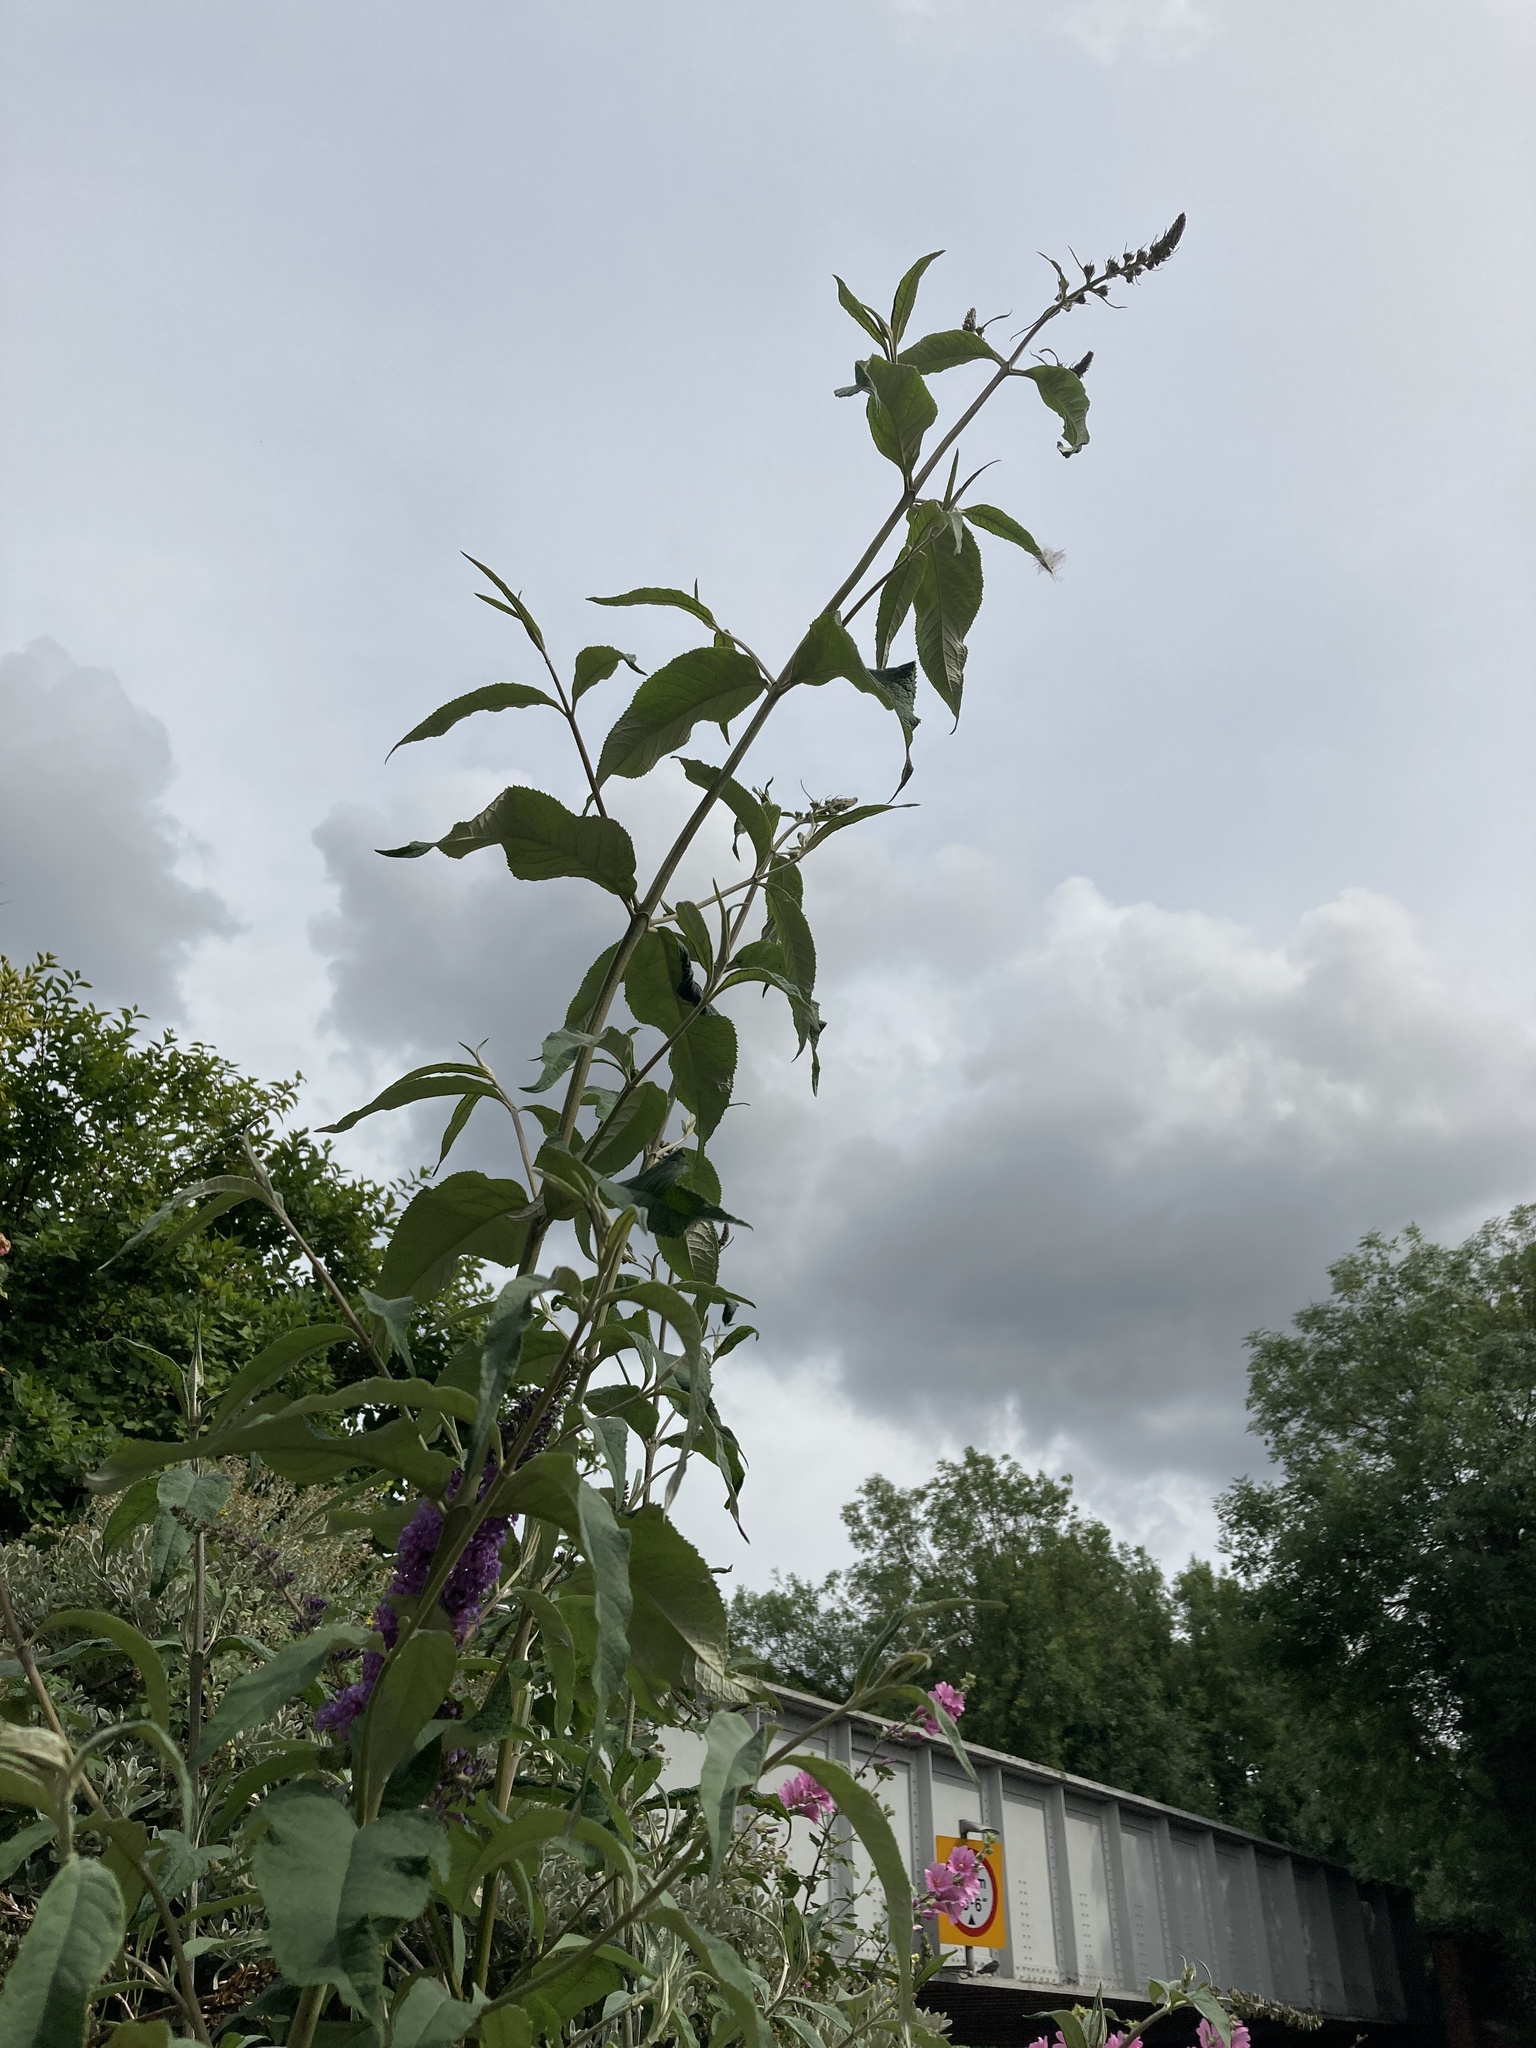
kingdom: Plantae
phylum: Tracheophyta
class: Magnoliopsida
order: Lamiales
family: Scrophulariaceae
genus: Buddleja
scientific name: Buddleja davidii
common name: Butterfly-bush
